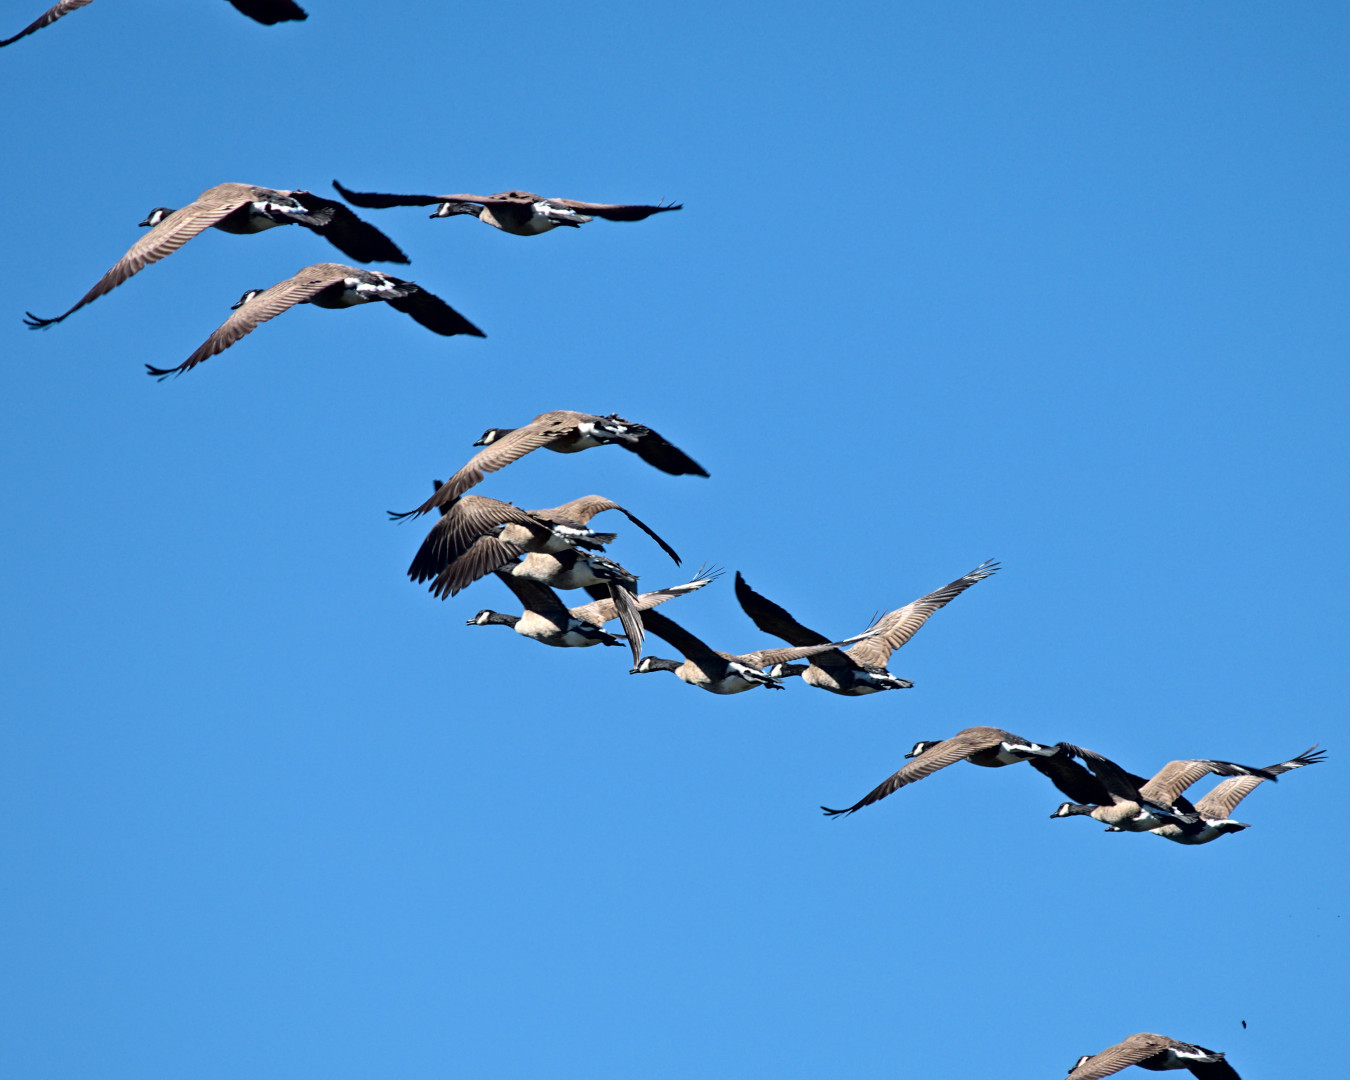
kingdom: Animalia
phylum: Chordata
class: Aves
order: Anseriformes
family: Anatidae
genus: Branta
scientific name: Branta canadensis
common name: Canada goose
